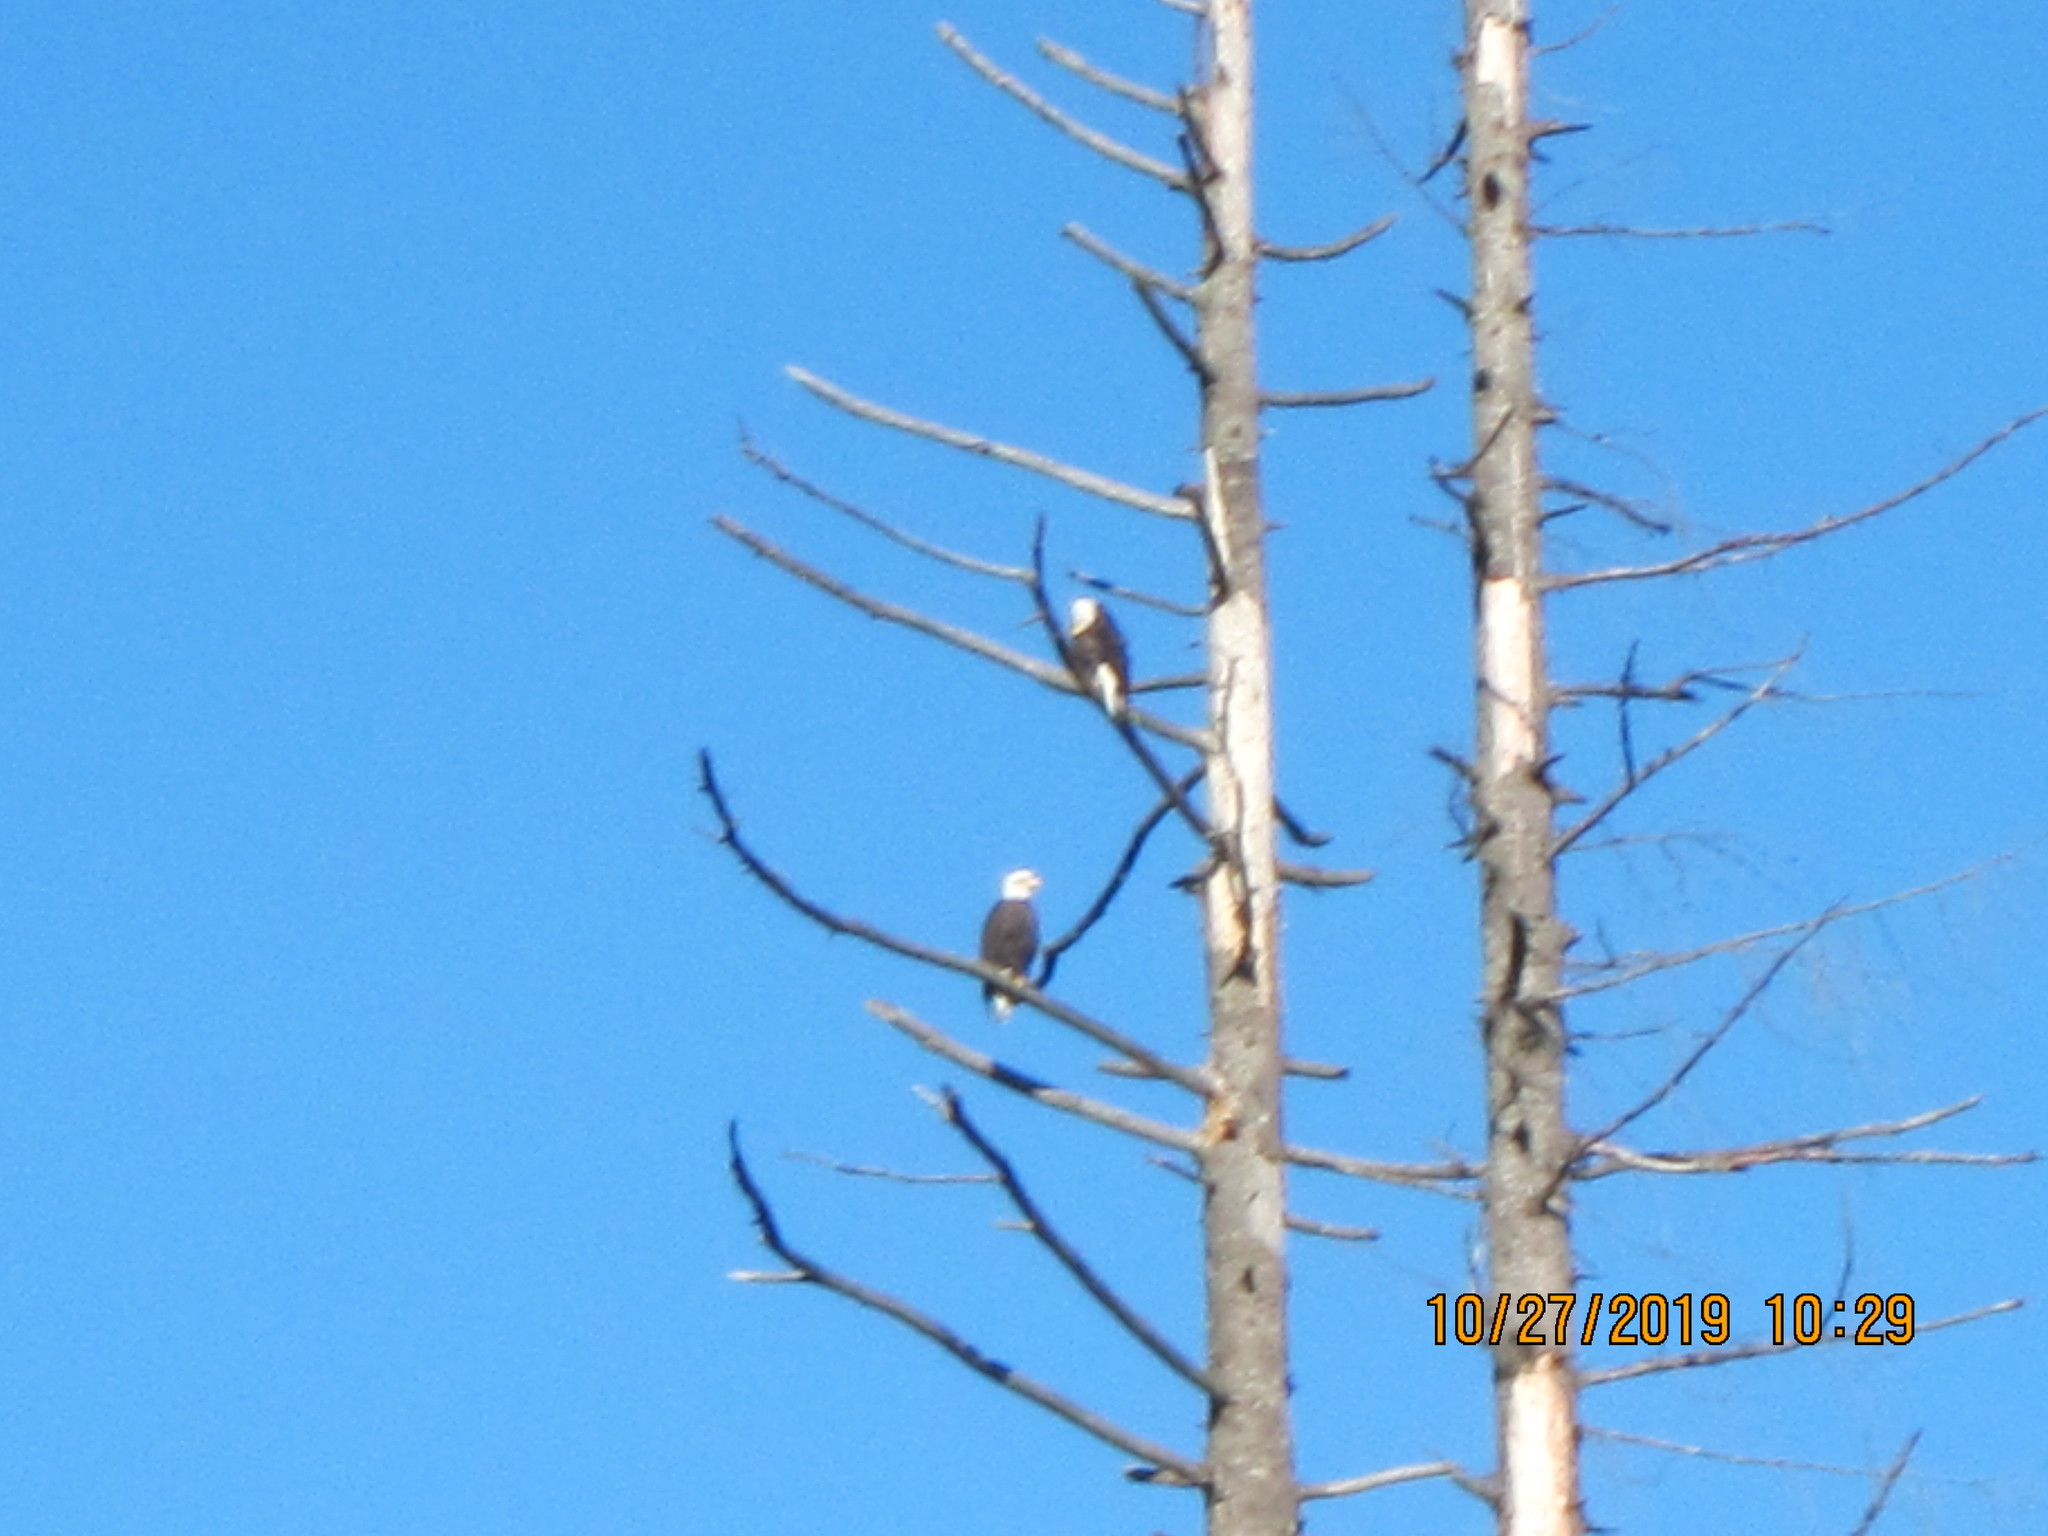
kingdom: Animalia
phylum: Chordata
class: Aves
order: Accipitriformes
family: Accipitridae
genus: Haliaeetus
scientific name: Haliaeetus leucocephalus
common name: Bald eagle
